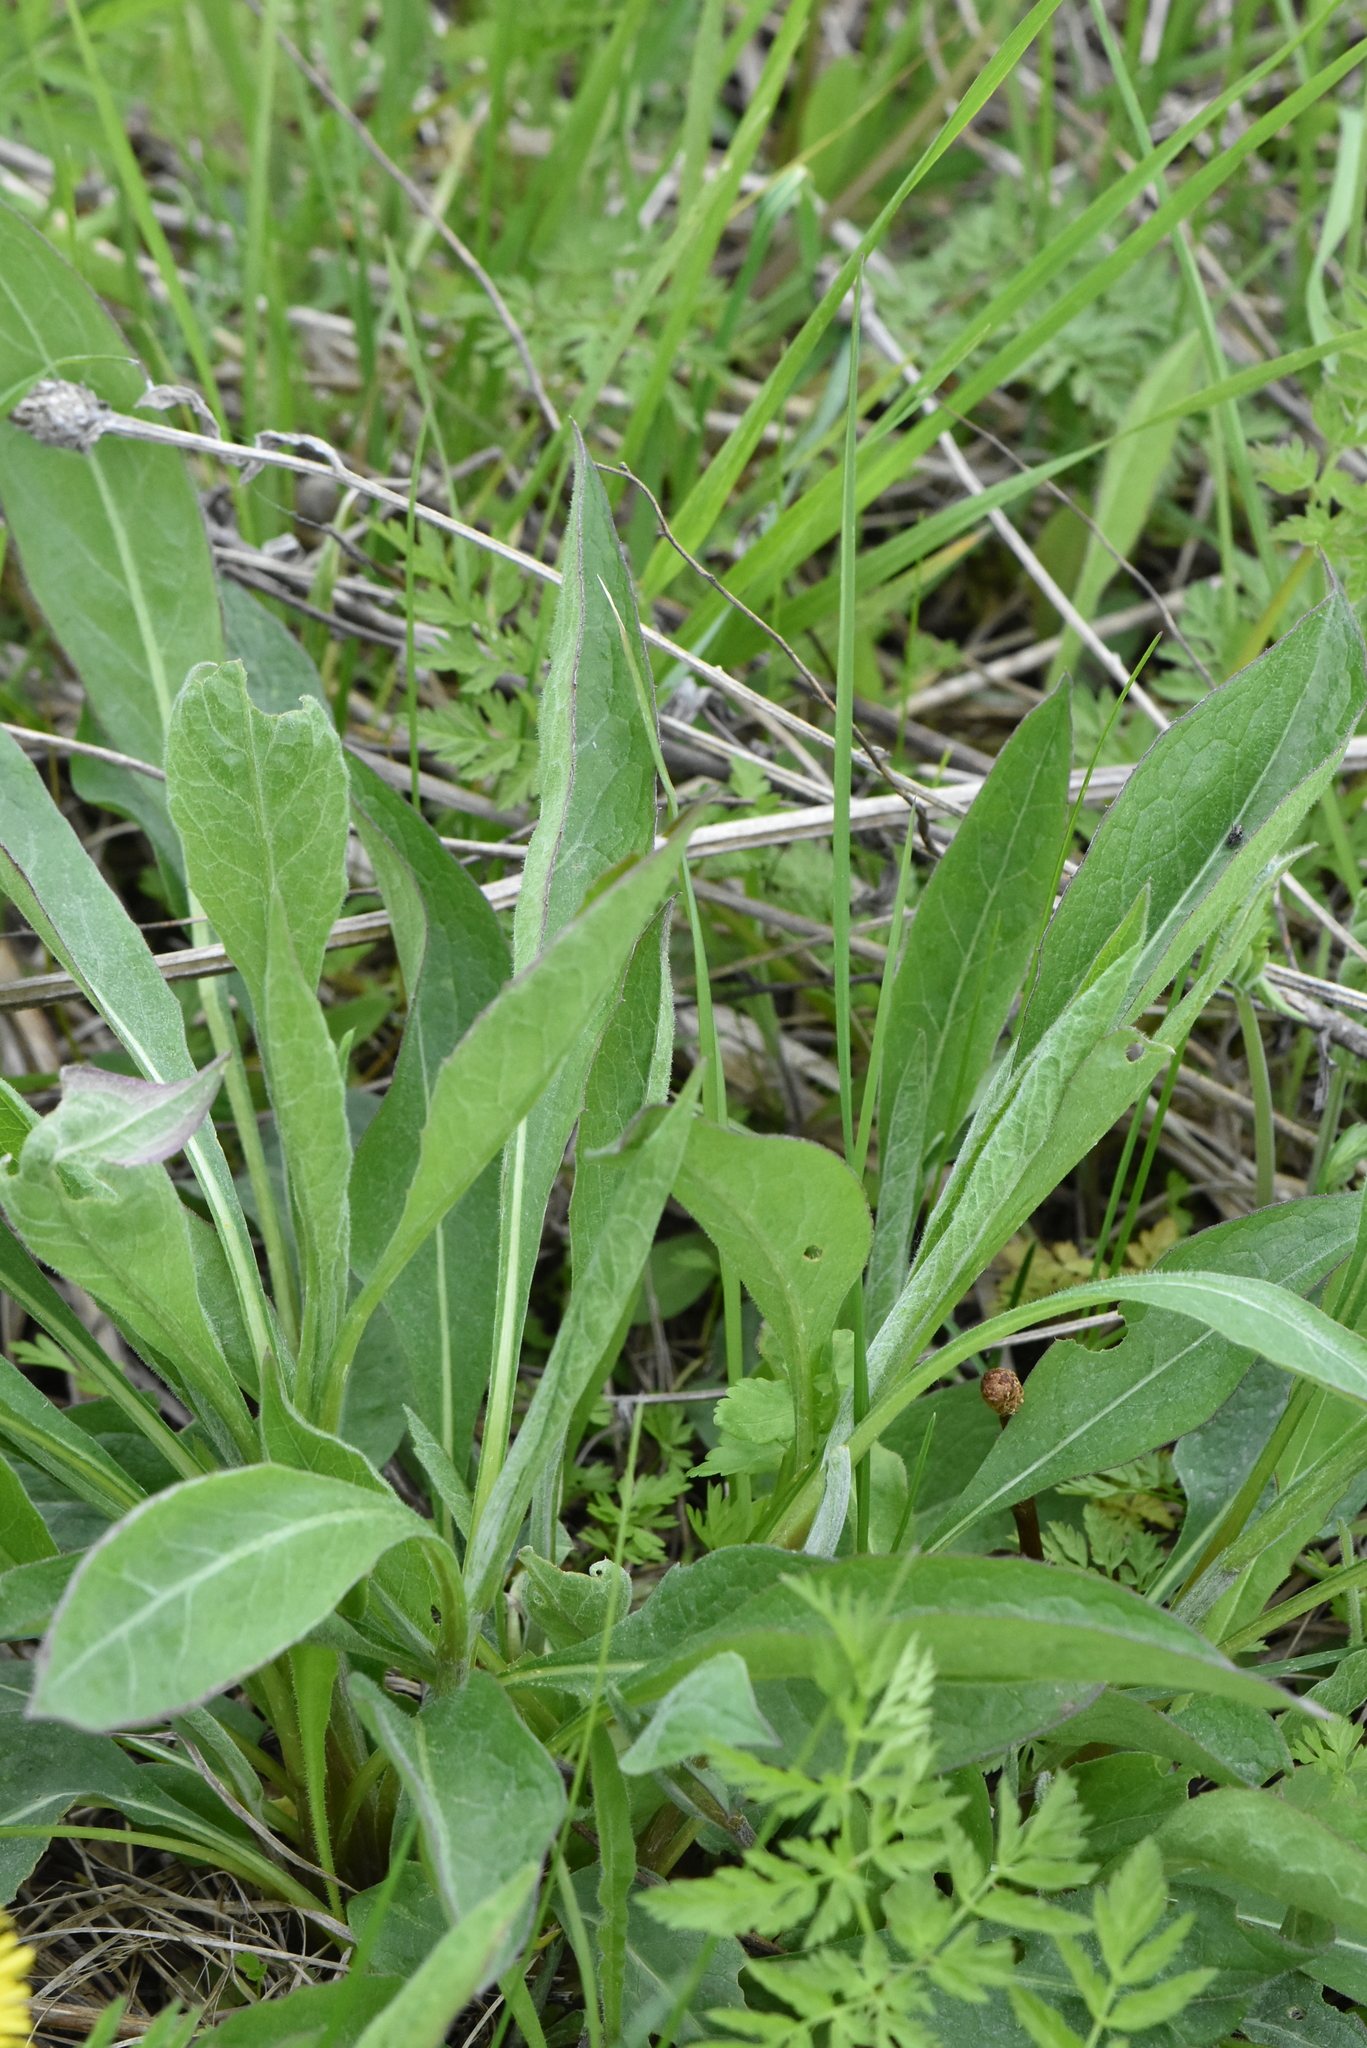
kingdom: Plantae
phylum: Tracheophyta
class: Magnoliopsida
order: Asterales
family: Asteraceae
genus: Centaurea
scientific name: Centaurea jacea
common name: Brown knapweed
